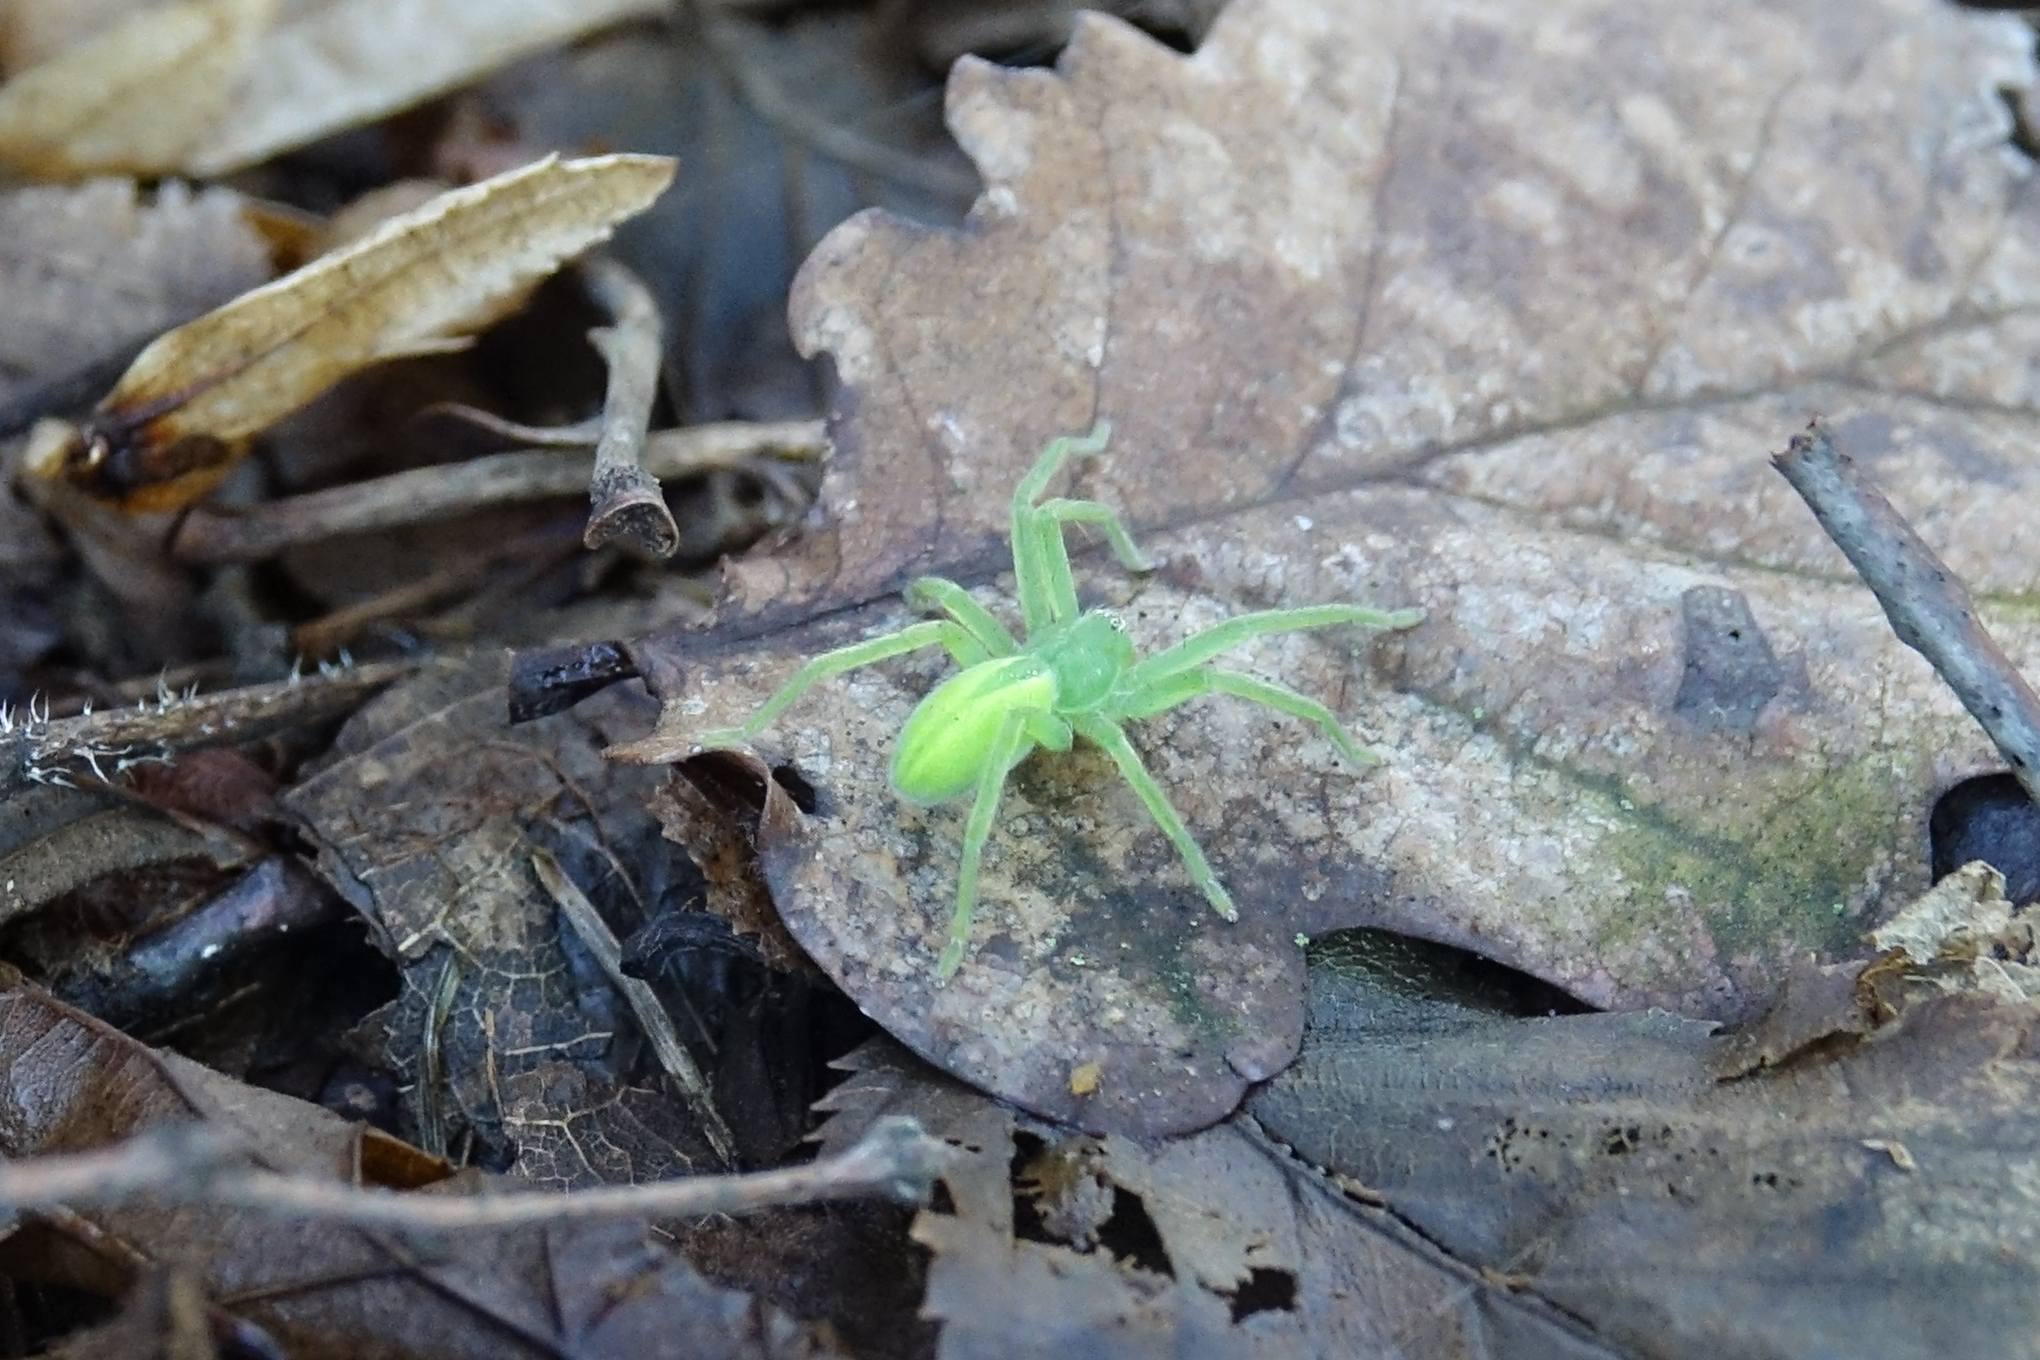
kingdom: Animalia
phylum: Arthropoda
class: Arachnida
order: Araneae
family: Sparassidae
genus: Micrommata
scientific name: Micrommata virescens
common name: Green spider
